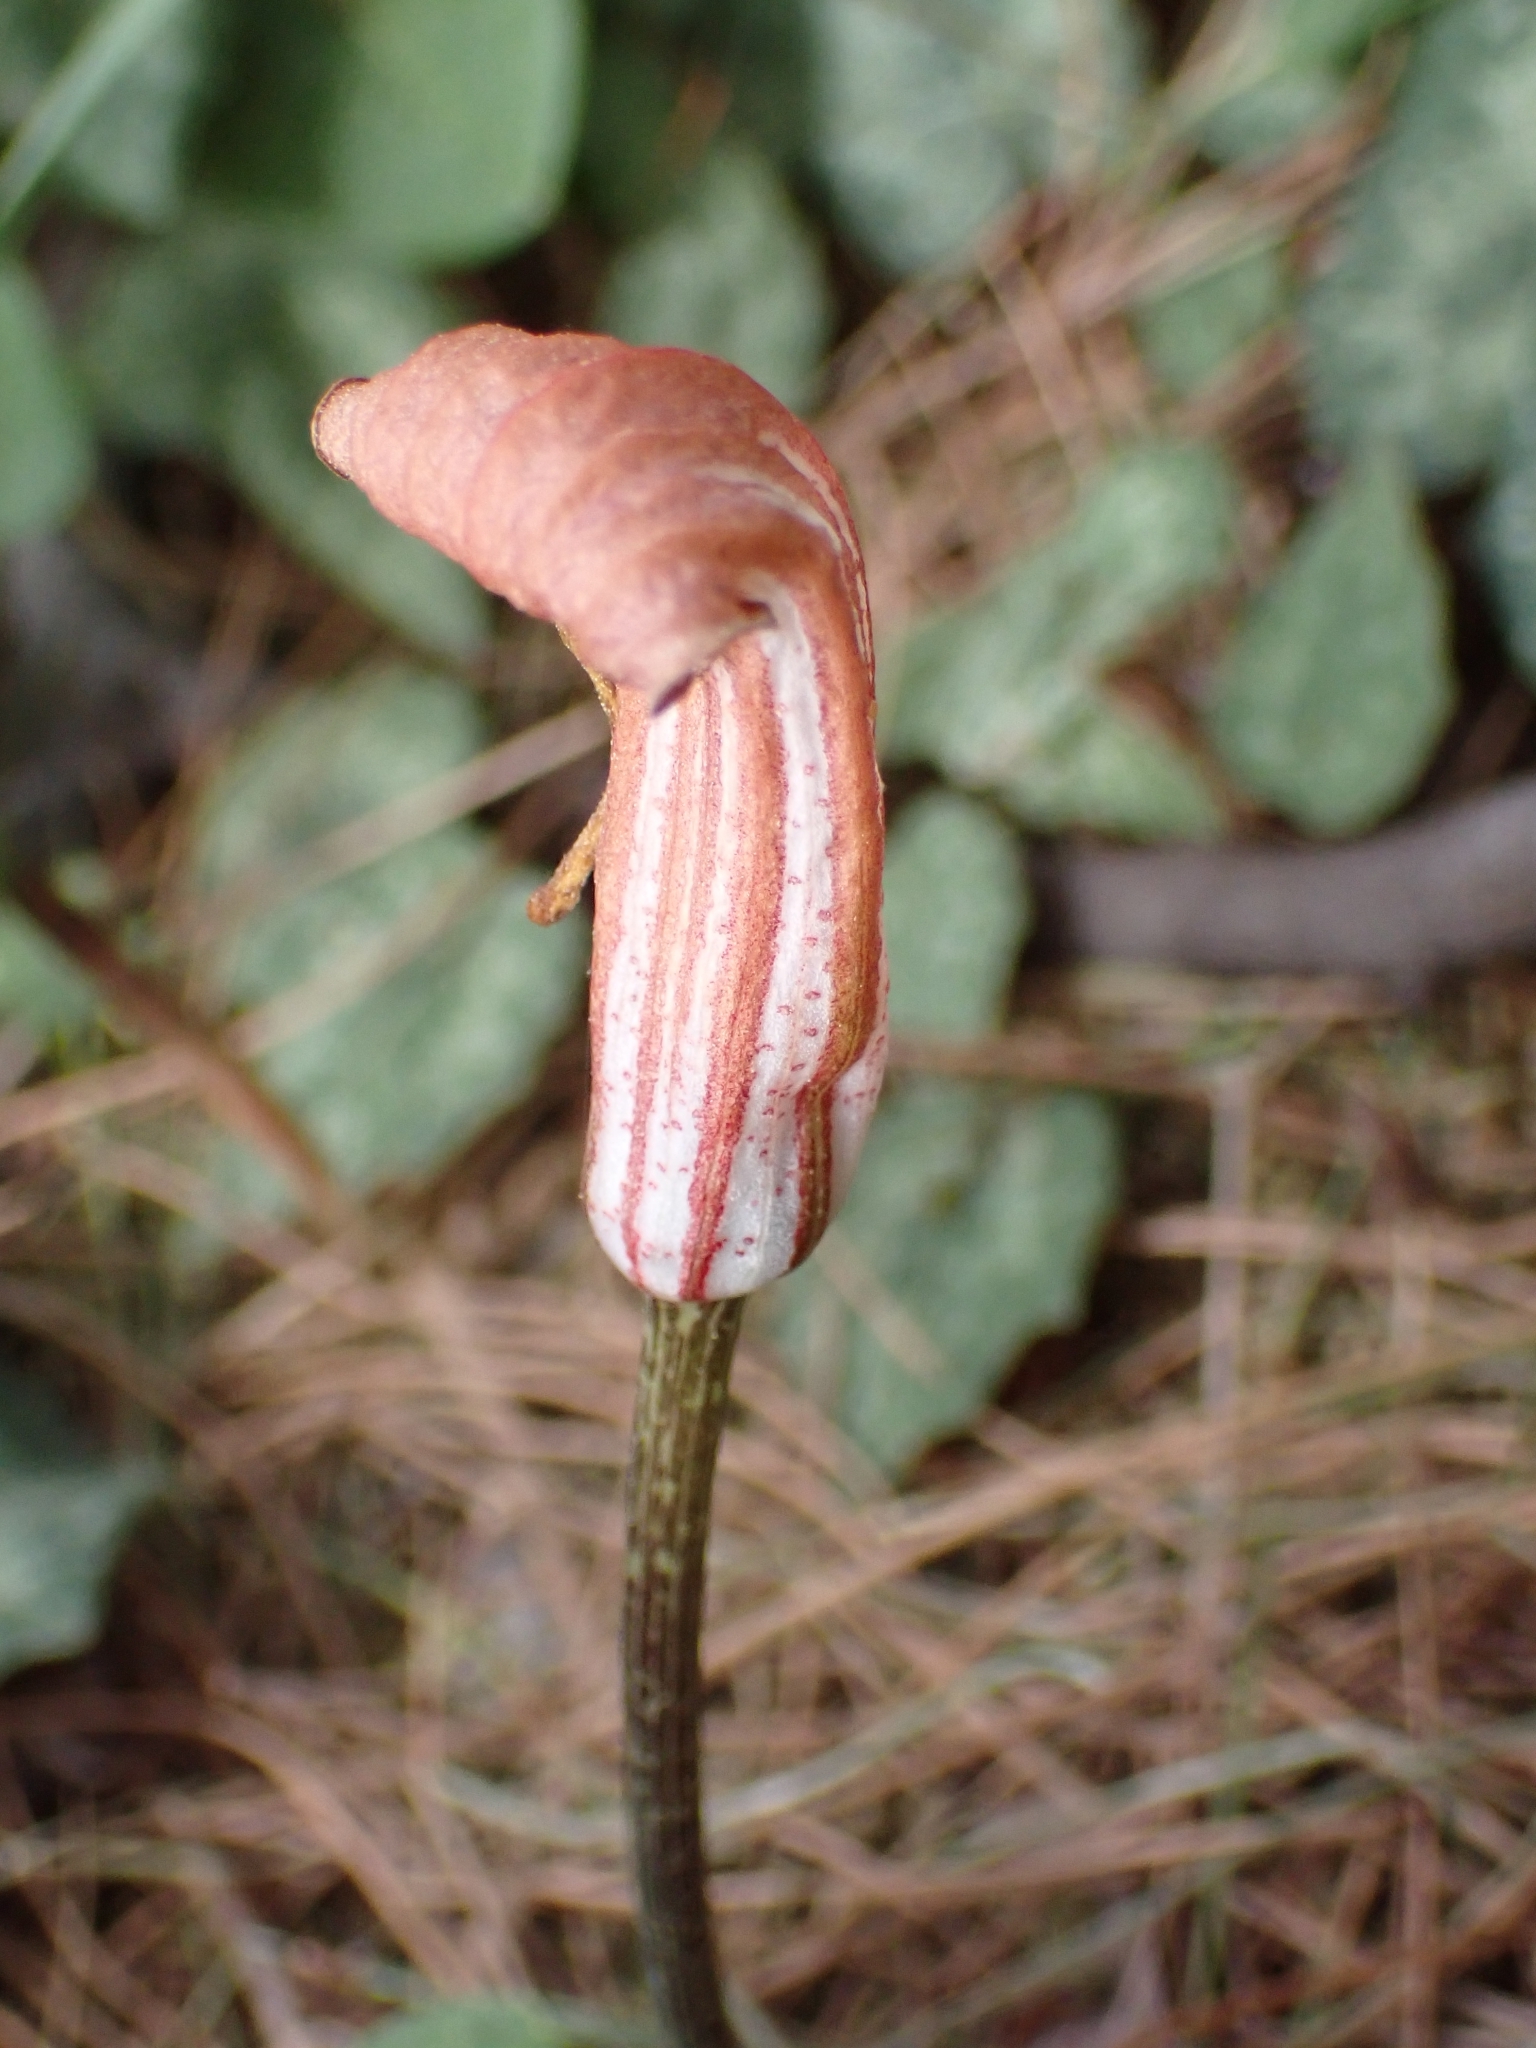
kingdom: Plantae
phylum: Tracheophyta
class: Liliopsida
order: Alismatales
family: Araceae
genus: Arisarum
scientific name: Arisarum vulgare
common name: Common arisarum
